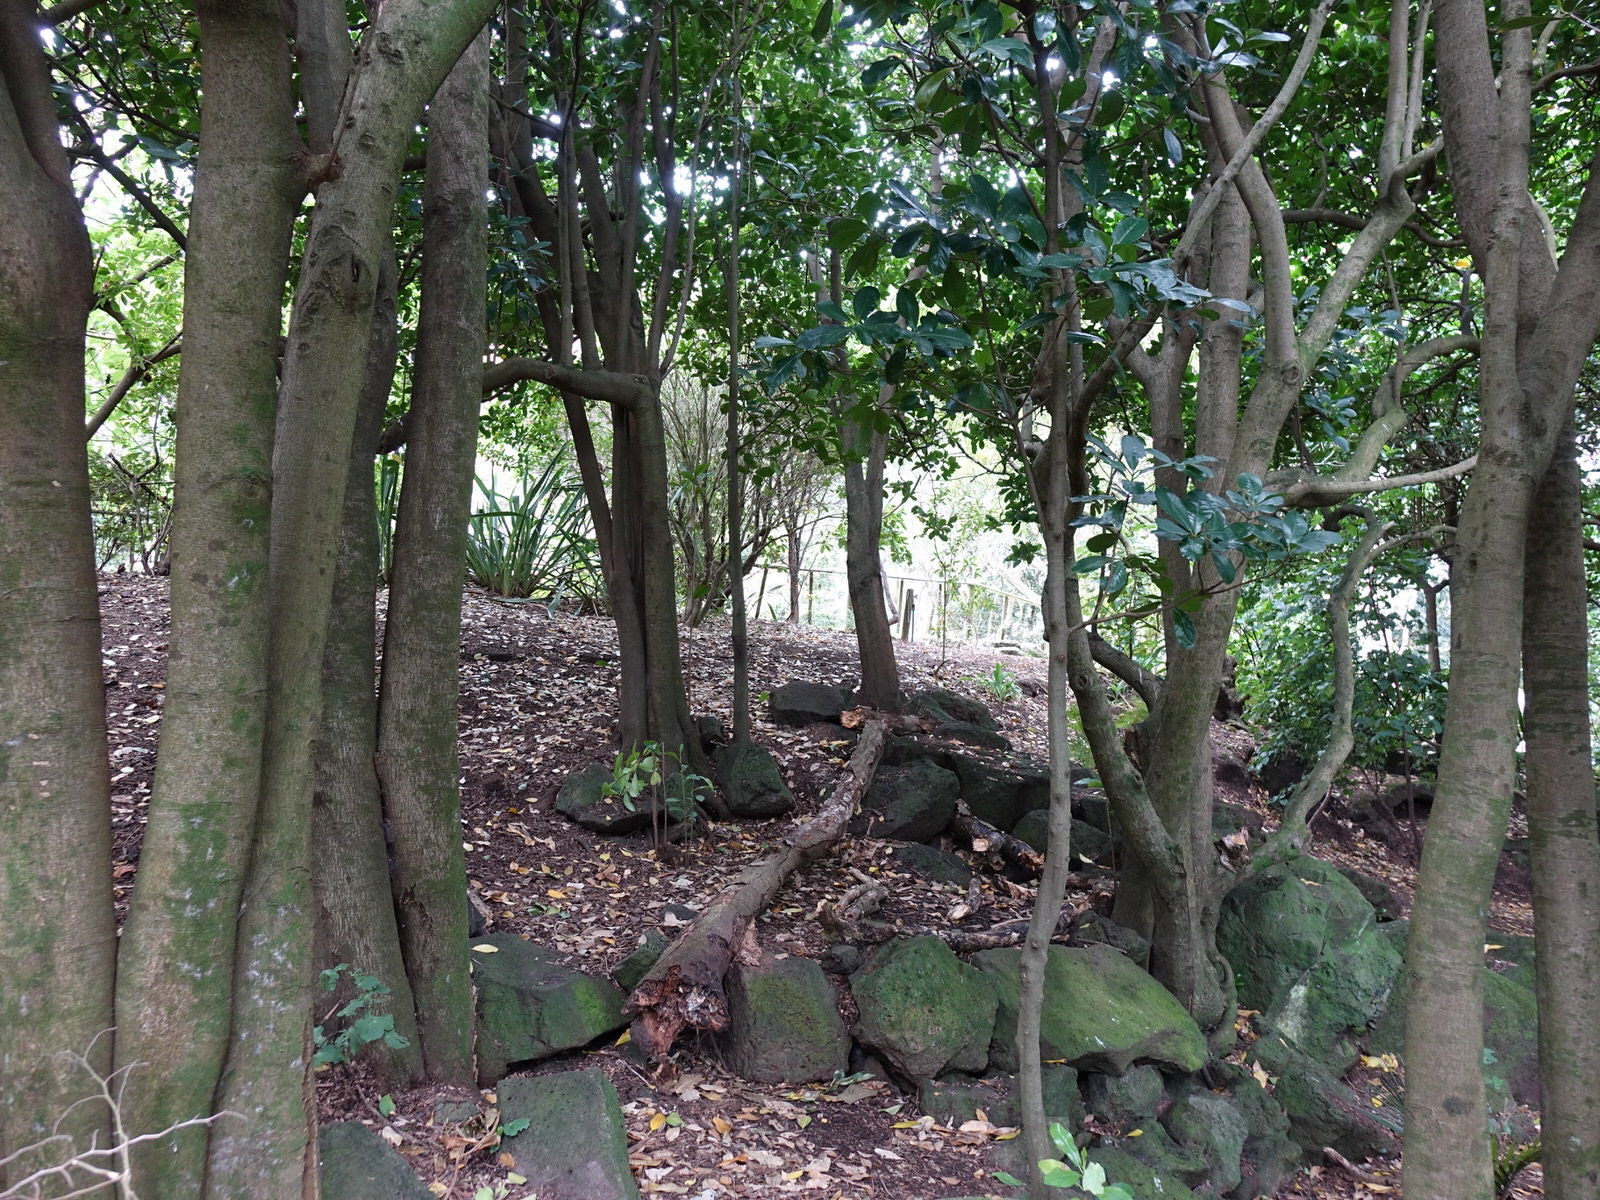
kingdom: Animalia
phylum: Chordata
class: Mammalia
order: Rodentia
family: Muridae
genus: Rattus
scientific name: Rattus rattus
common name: Black rat
